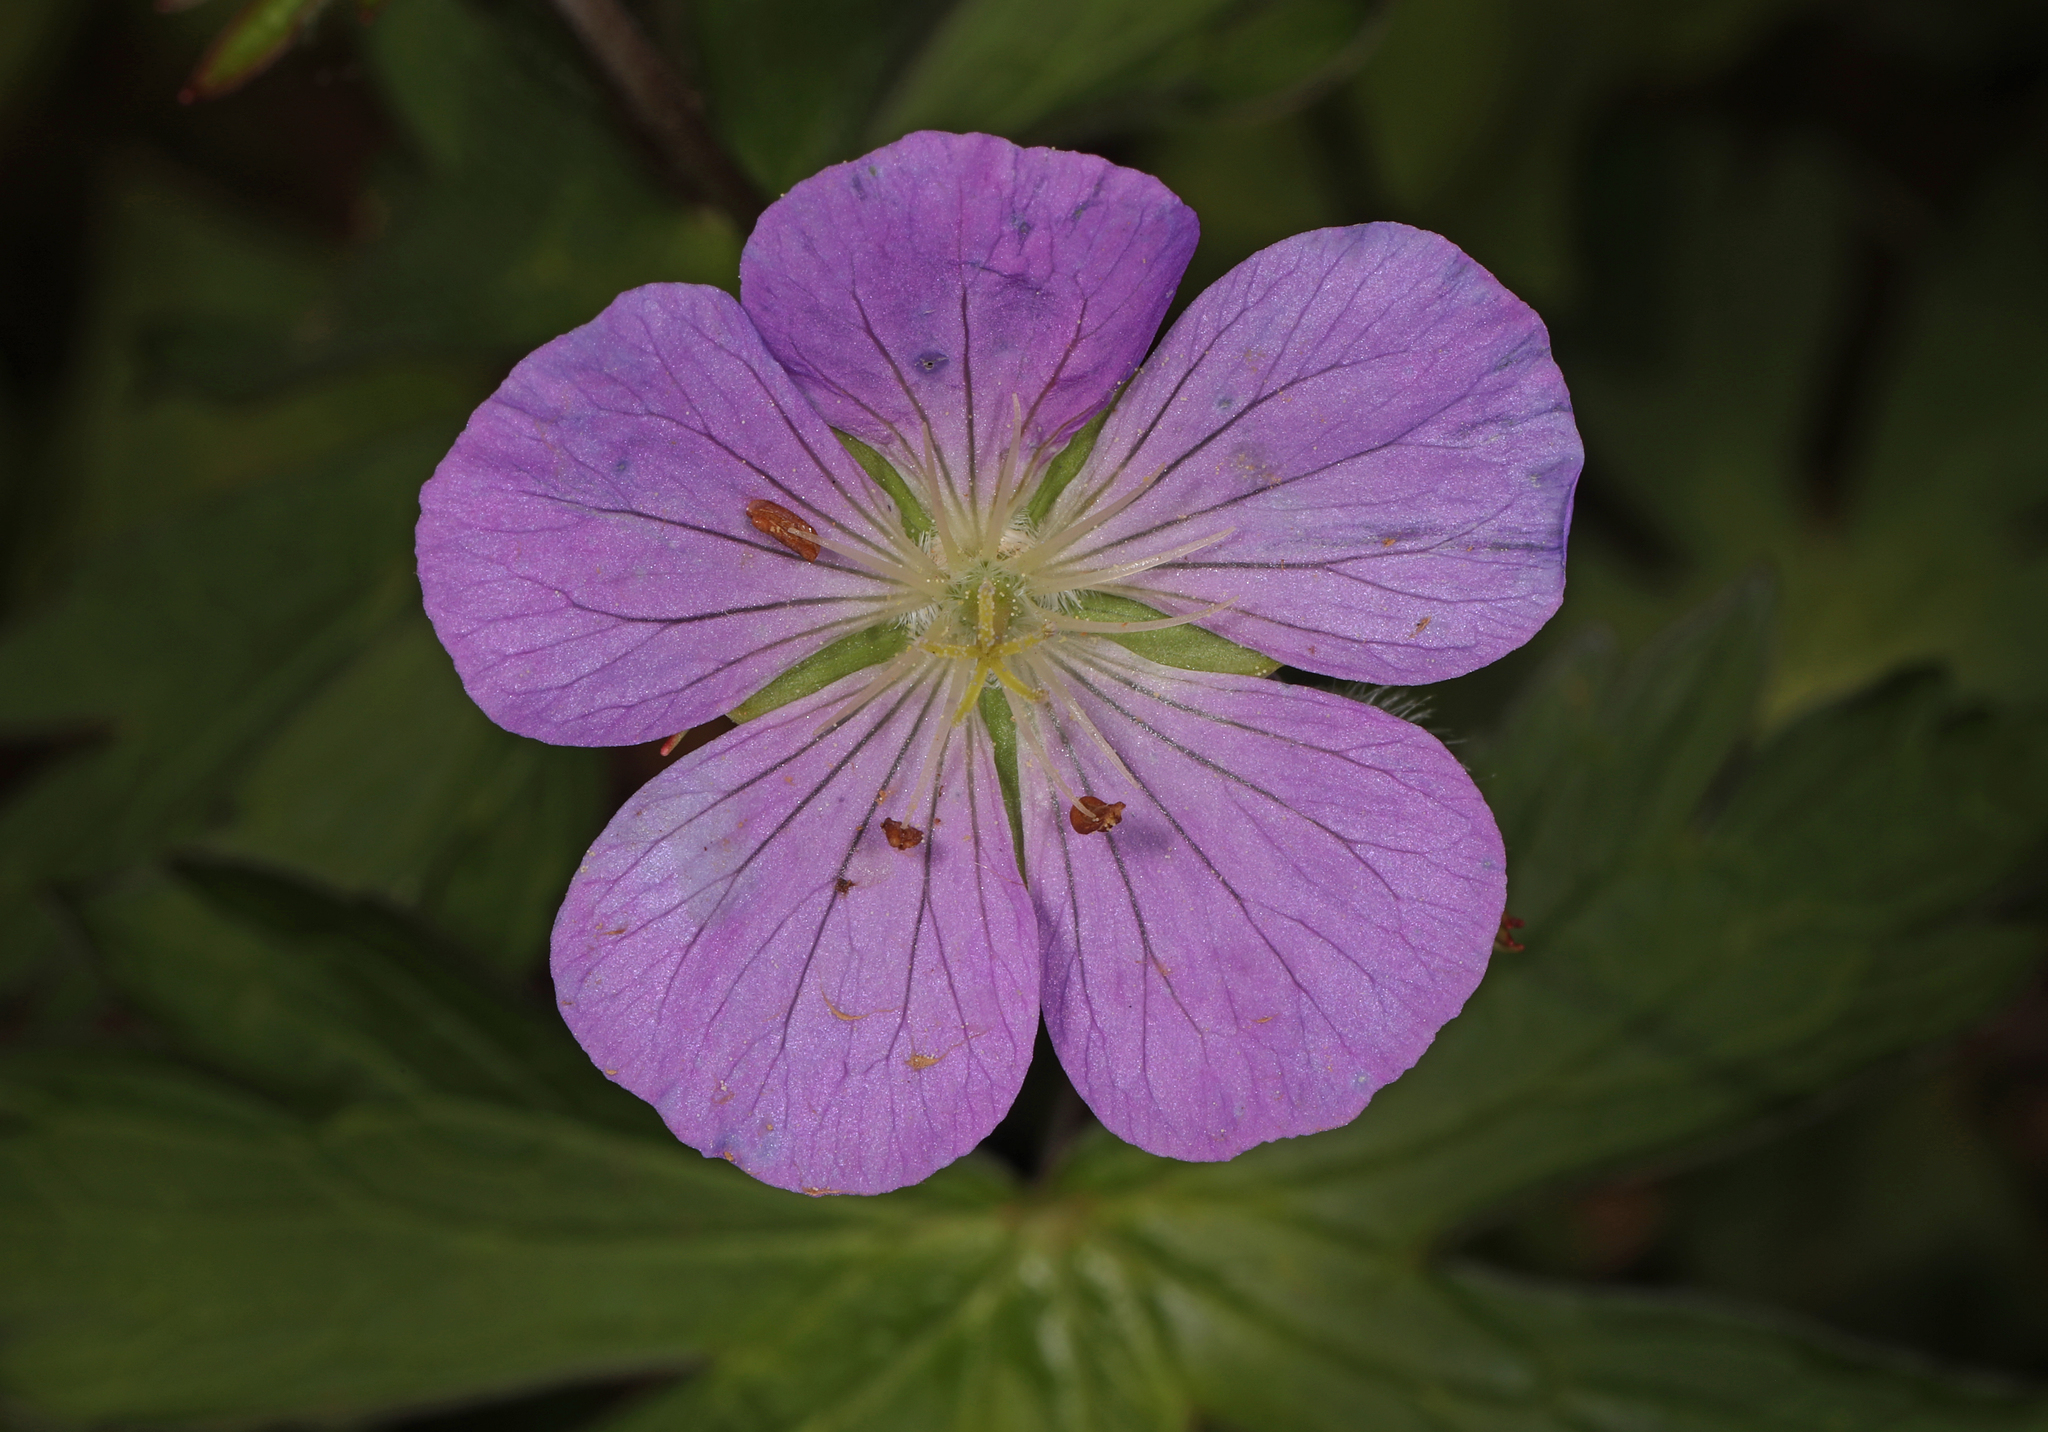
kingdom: Plantae
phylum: Tracheophyta
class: Magnoliopsida
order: Geraniales
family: Geraniaceae
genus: Geranium
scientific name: Geranium maculatum
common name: Spotted geranium
